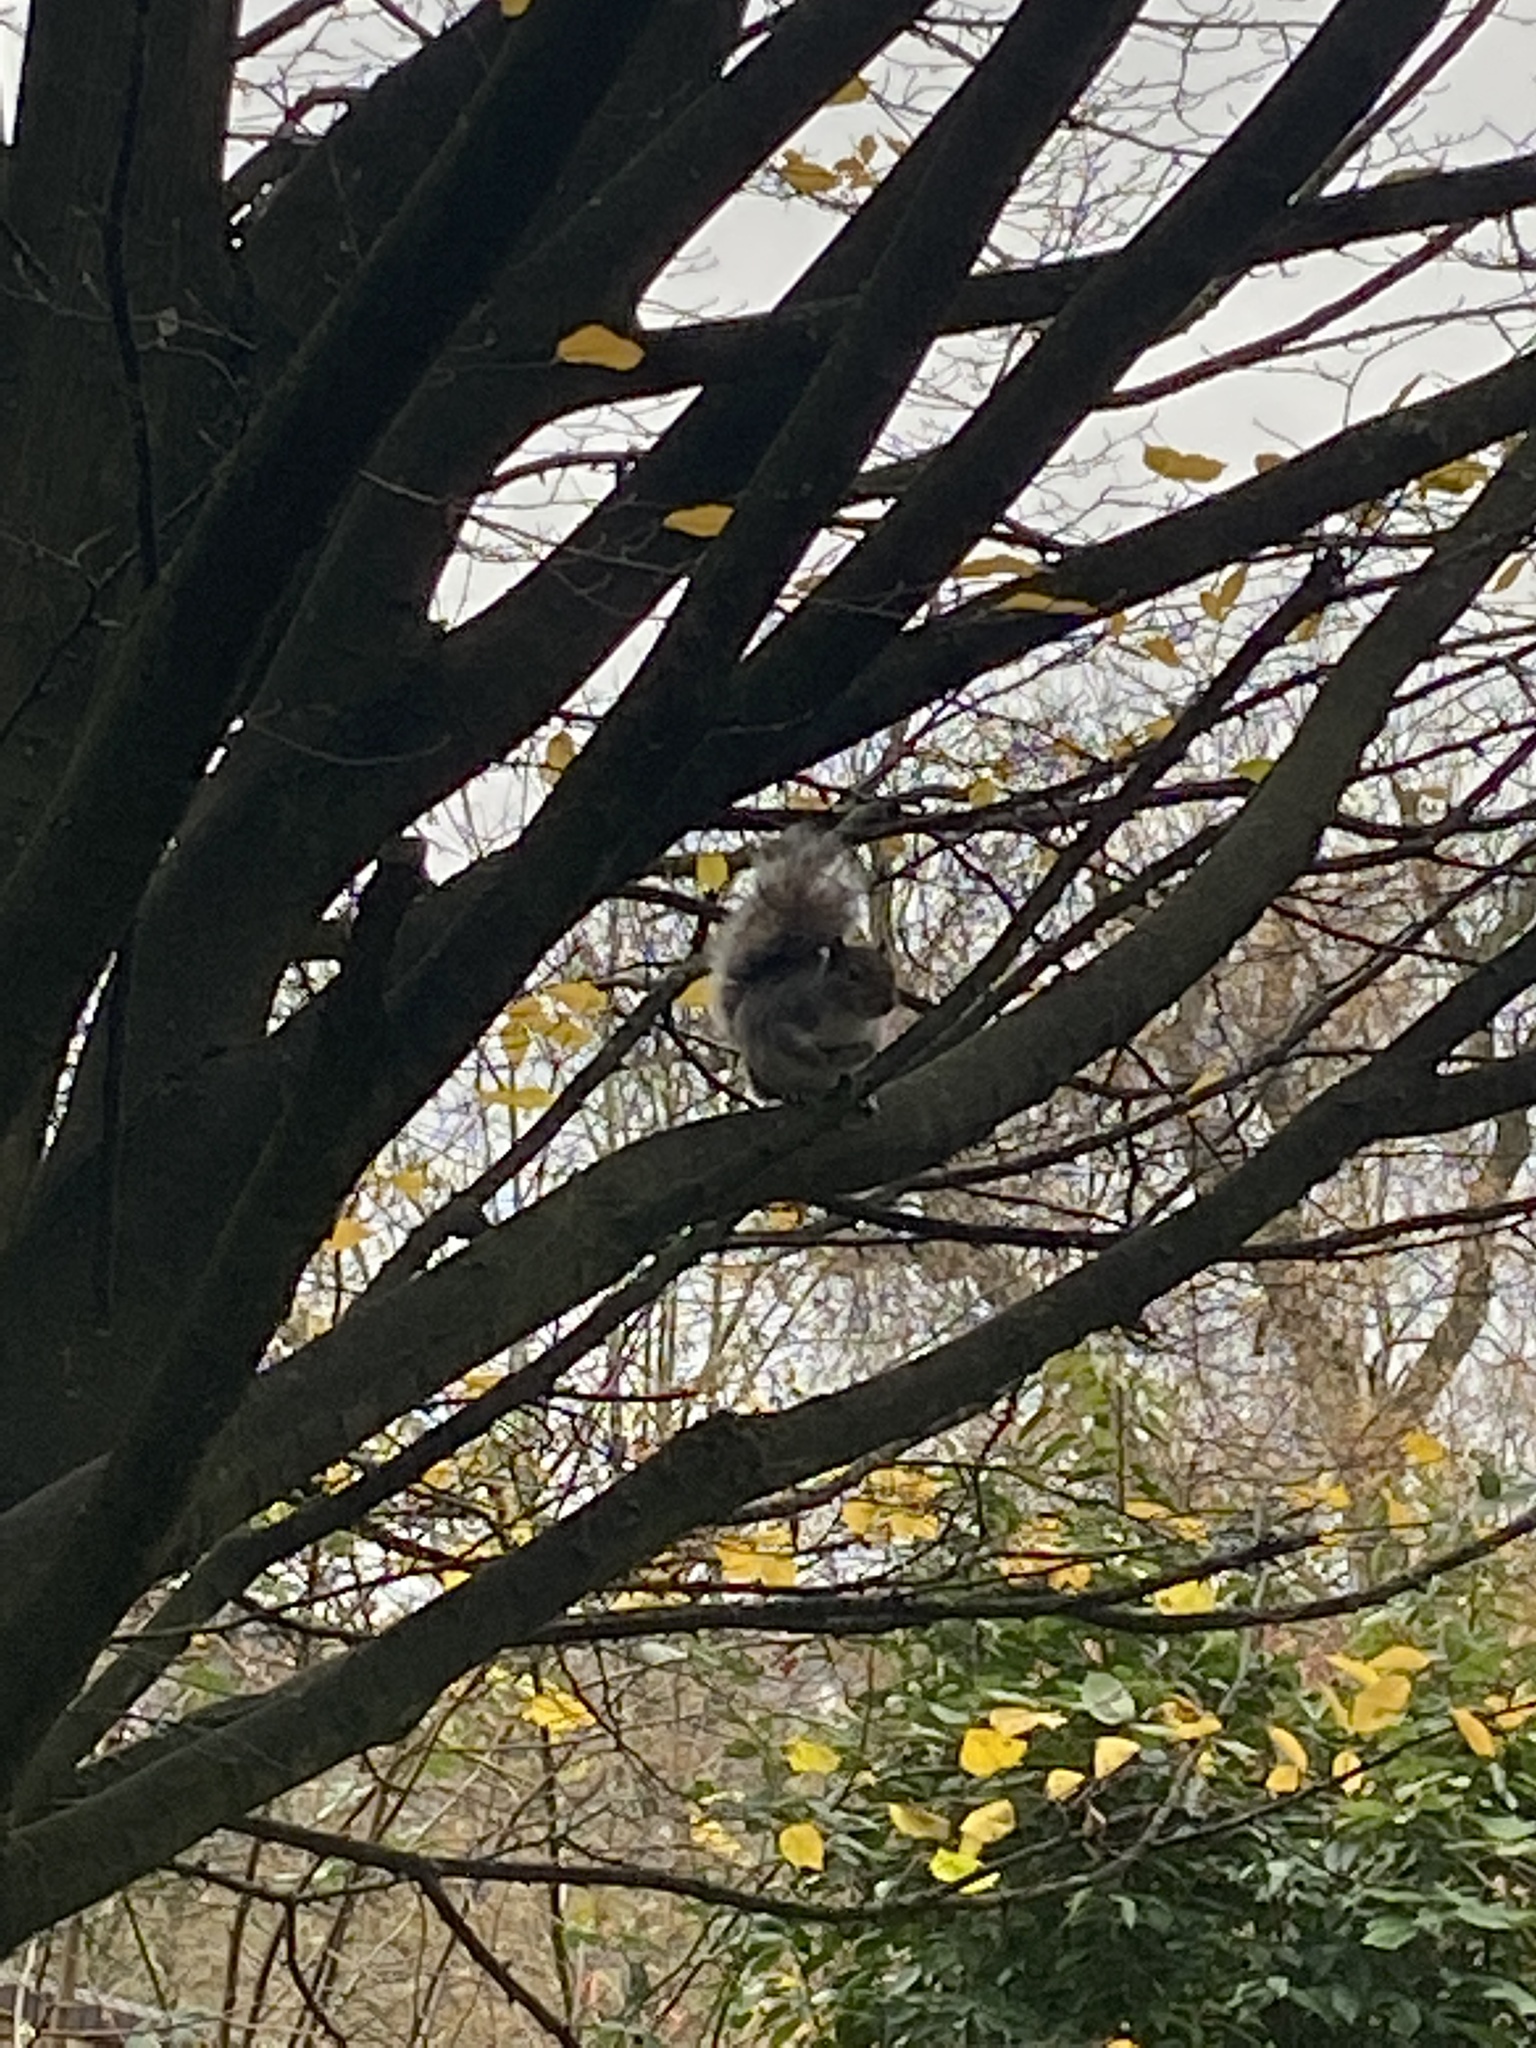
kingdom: Animalia
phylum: Chordata
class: Mammalia
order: Rodentia
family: Sciuridae
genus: Sciurus
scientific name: Sciurus carolinensis
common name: Eastern gray squirrel
